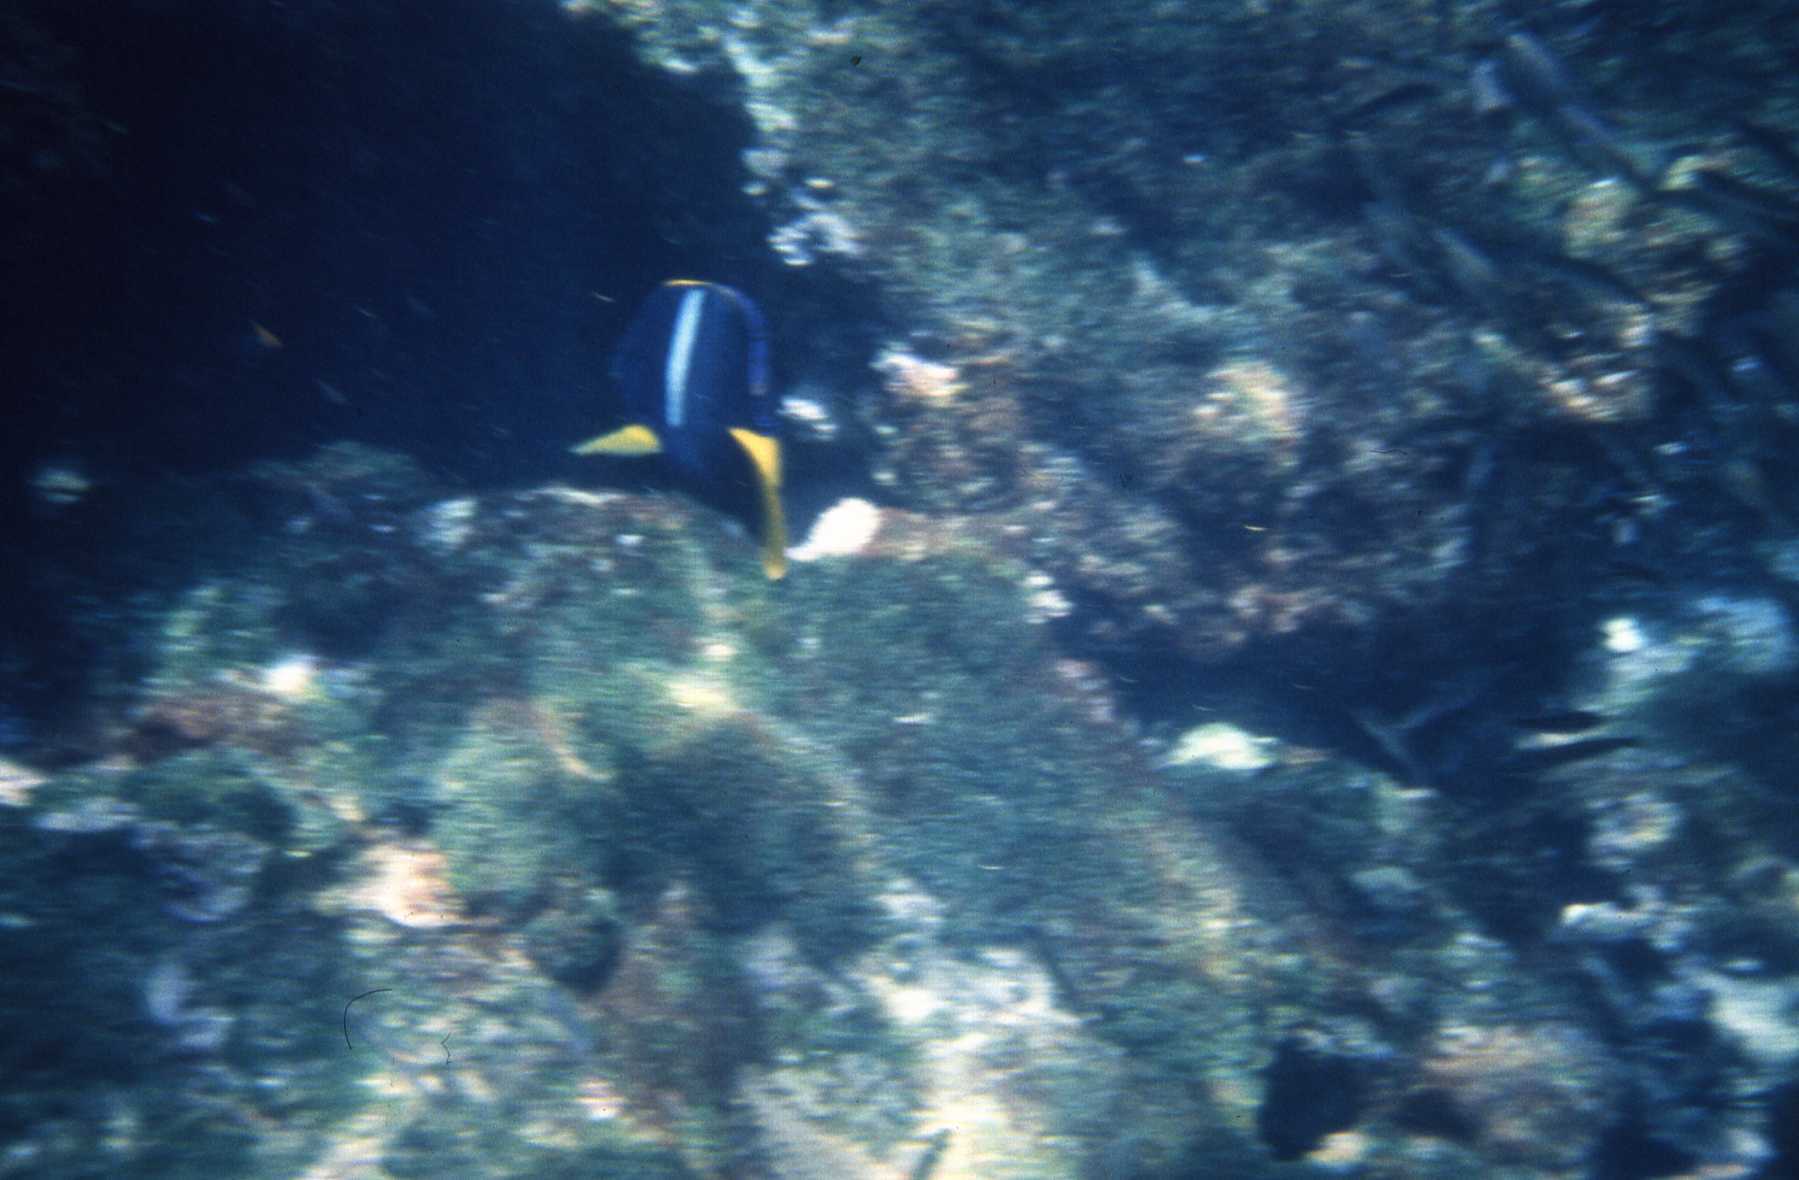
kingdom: Animalia
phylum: Chordata
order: Perciformes
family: Pomacanthidae
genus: Holacanthus
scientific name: Holacanthus passer
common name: King angelfish
